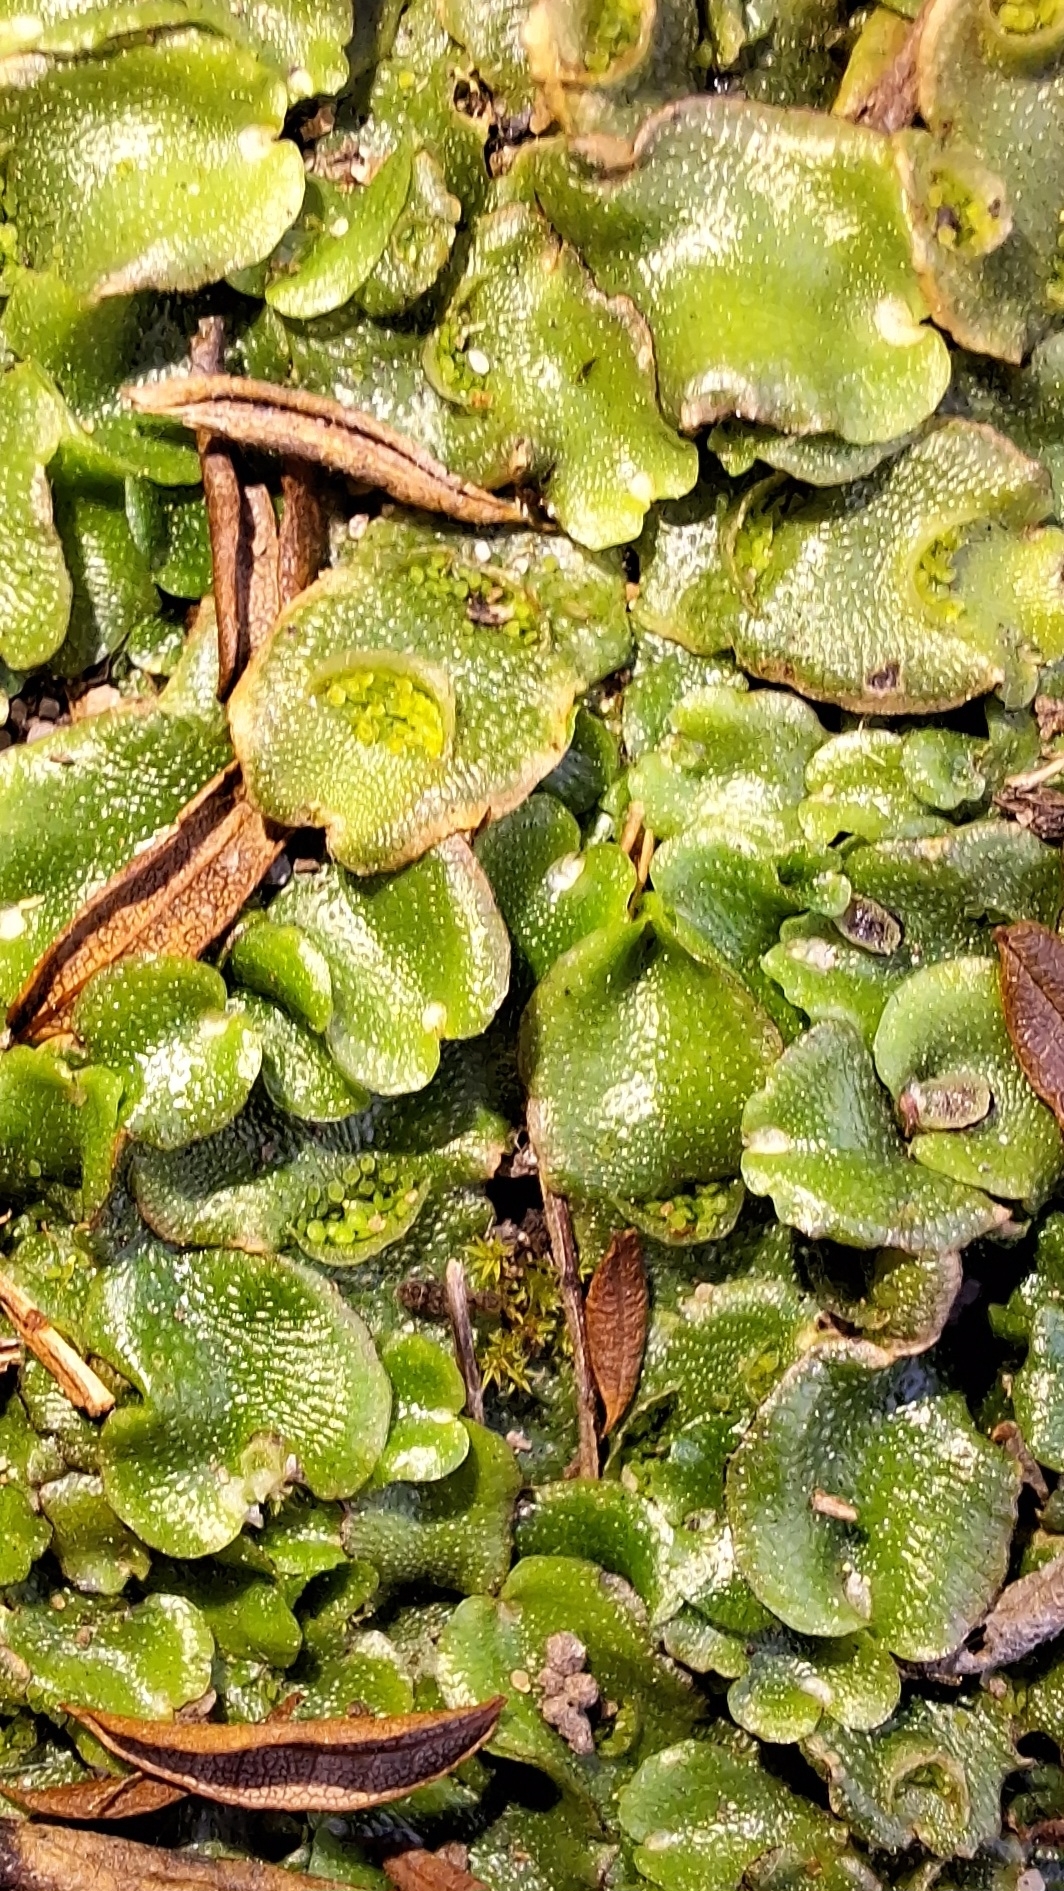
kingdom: Plantae
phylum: Marchantiophyta
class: Marchantiopsida
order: Lunulariales
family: Lunulariaceae
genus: Lunularia
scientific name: Lunularia cruciata
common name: Crescent-cup liverwort
